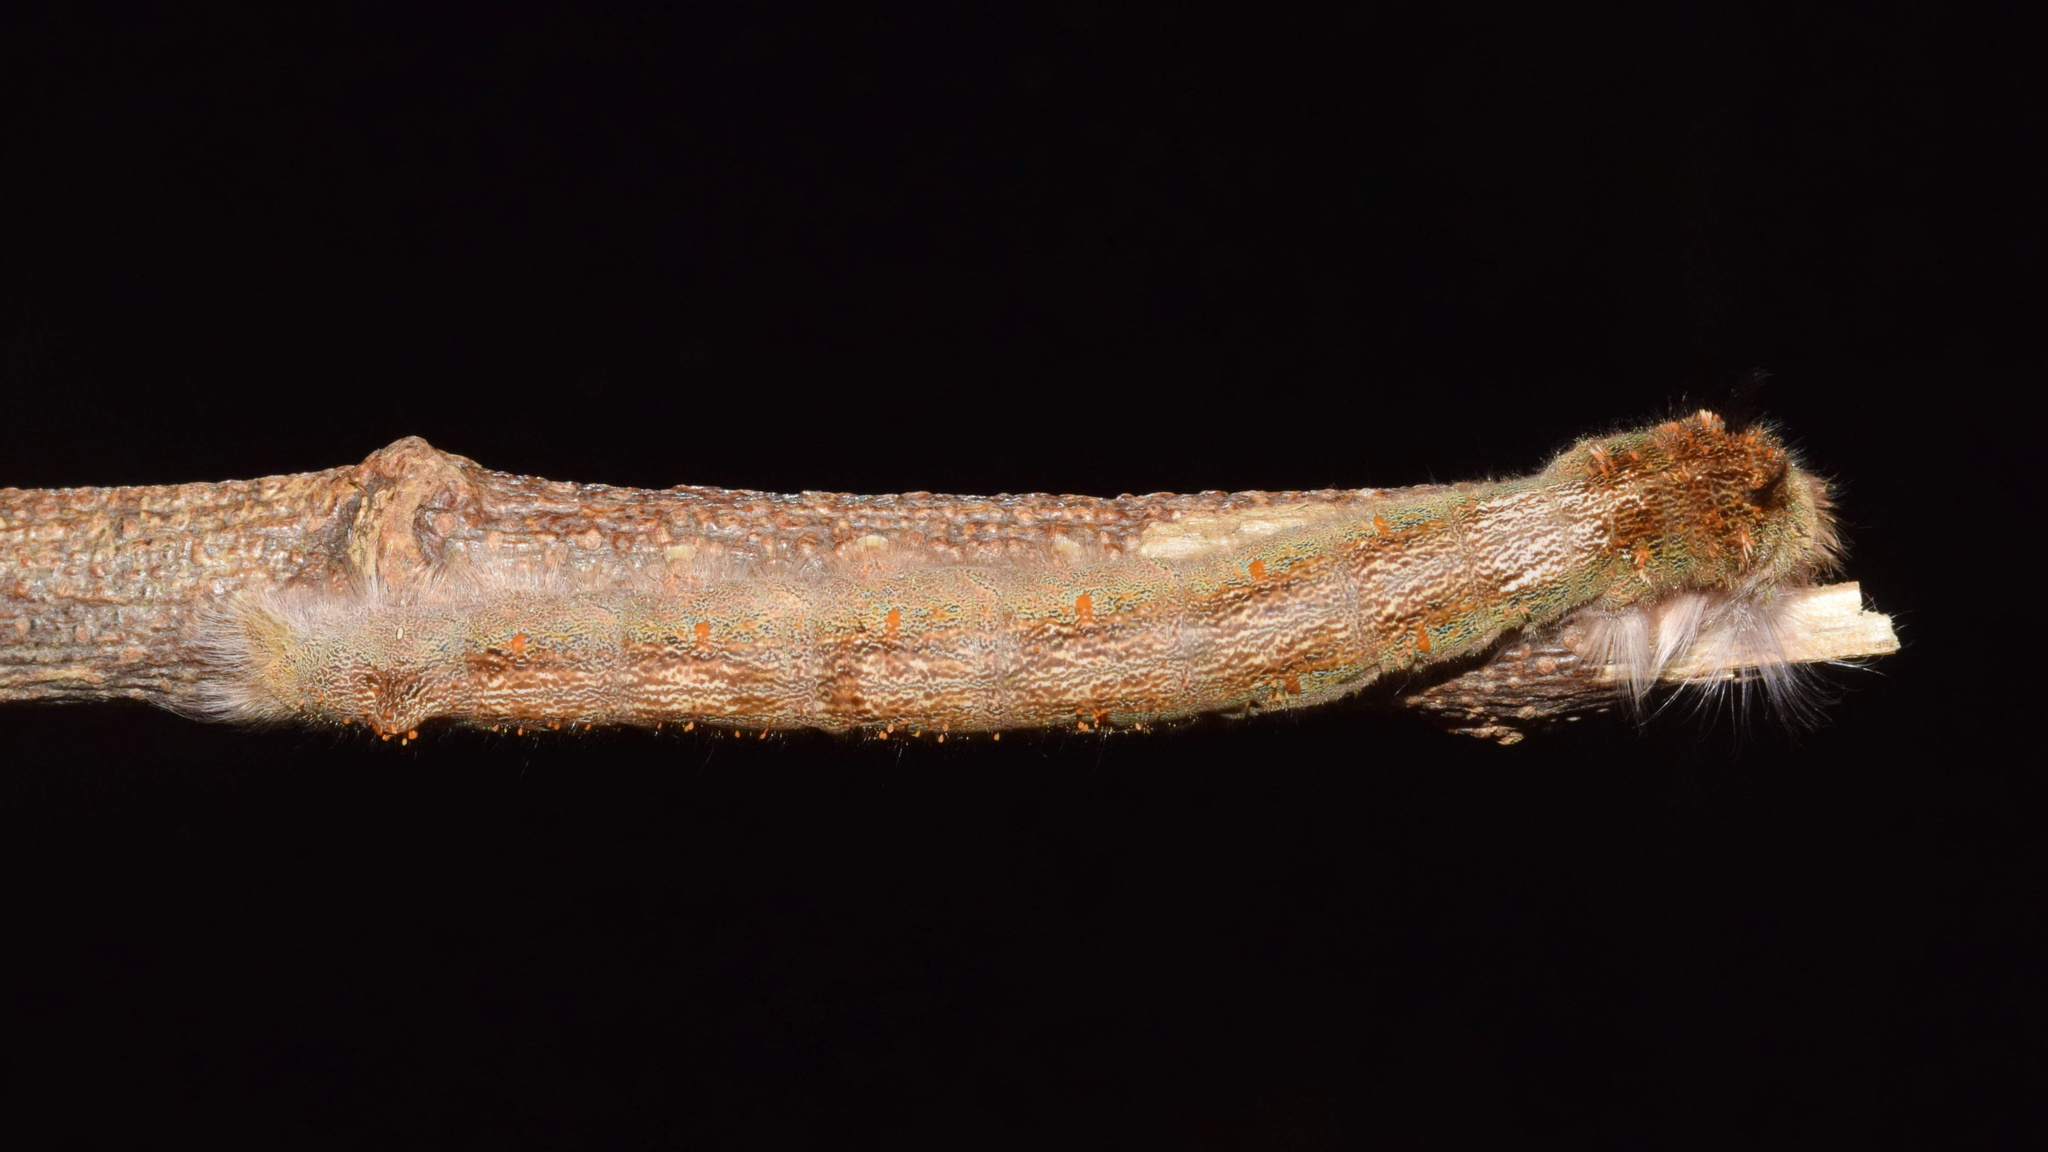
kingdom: Animalia
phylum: Arthropoda
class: Insecta
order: Lepidoptera
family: Lasiocampidae
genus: Leipoxais
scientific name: Leipoxais peraffinis
